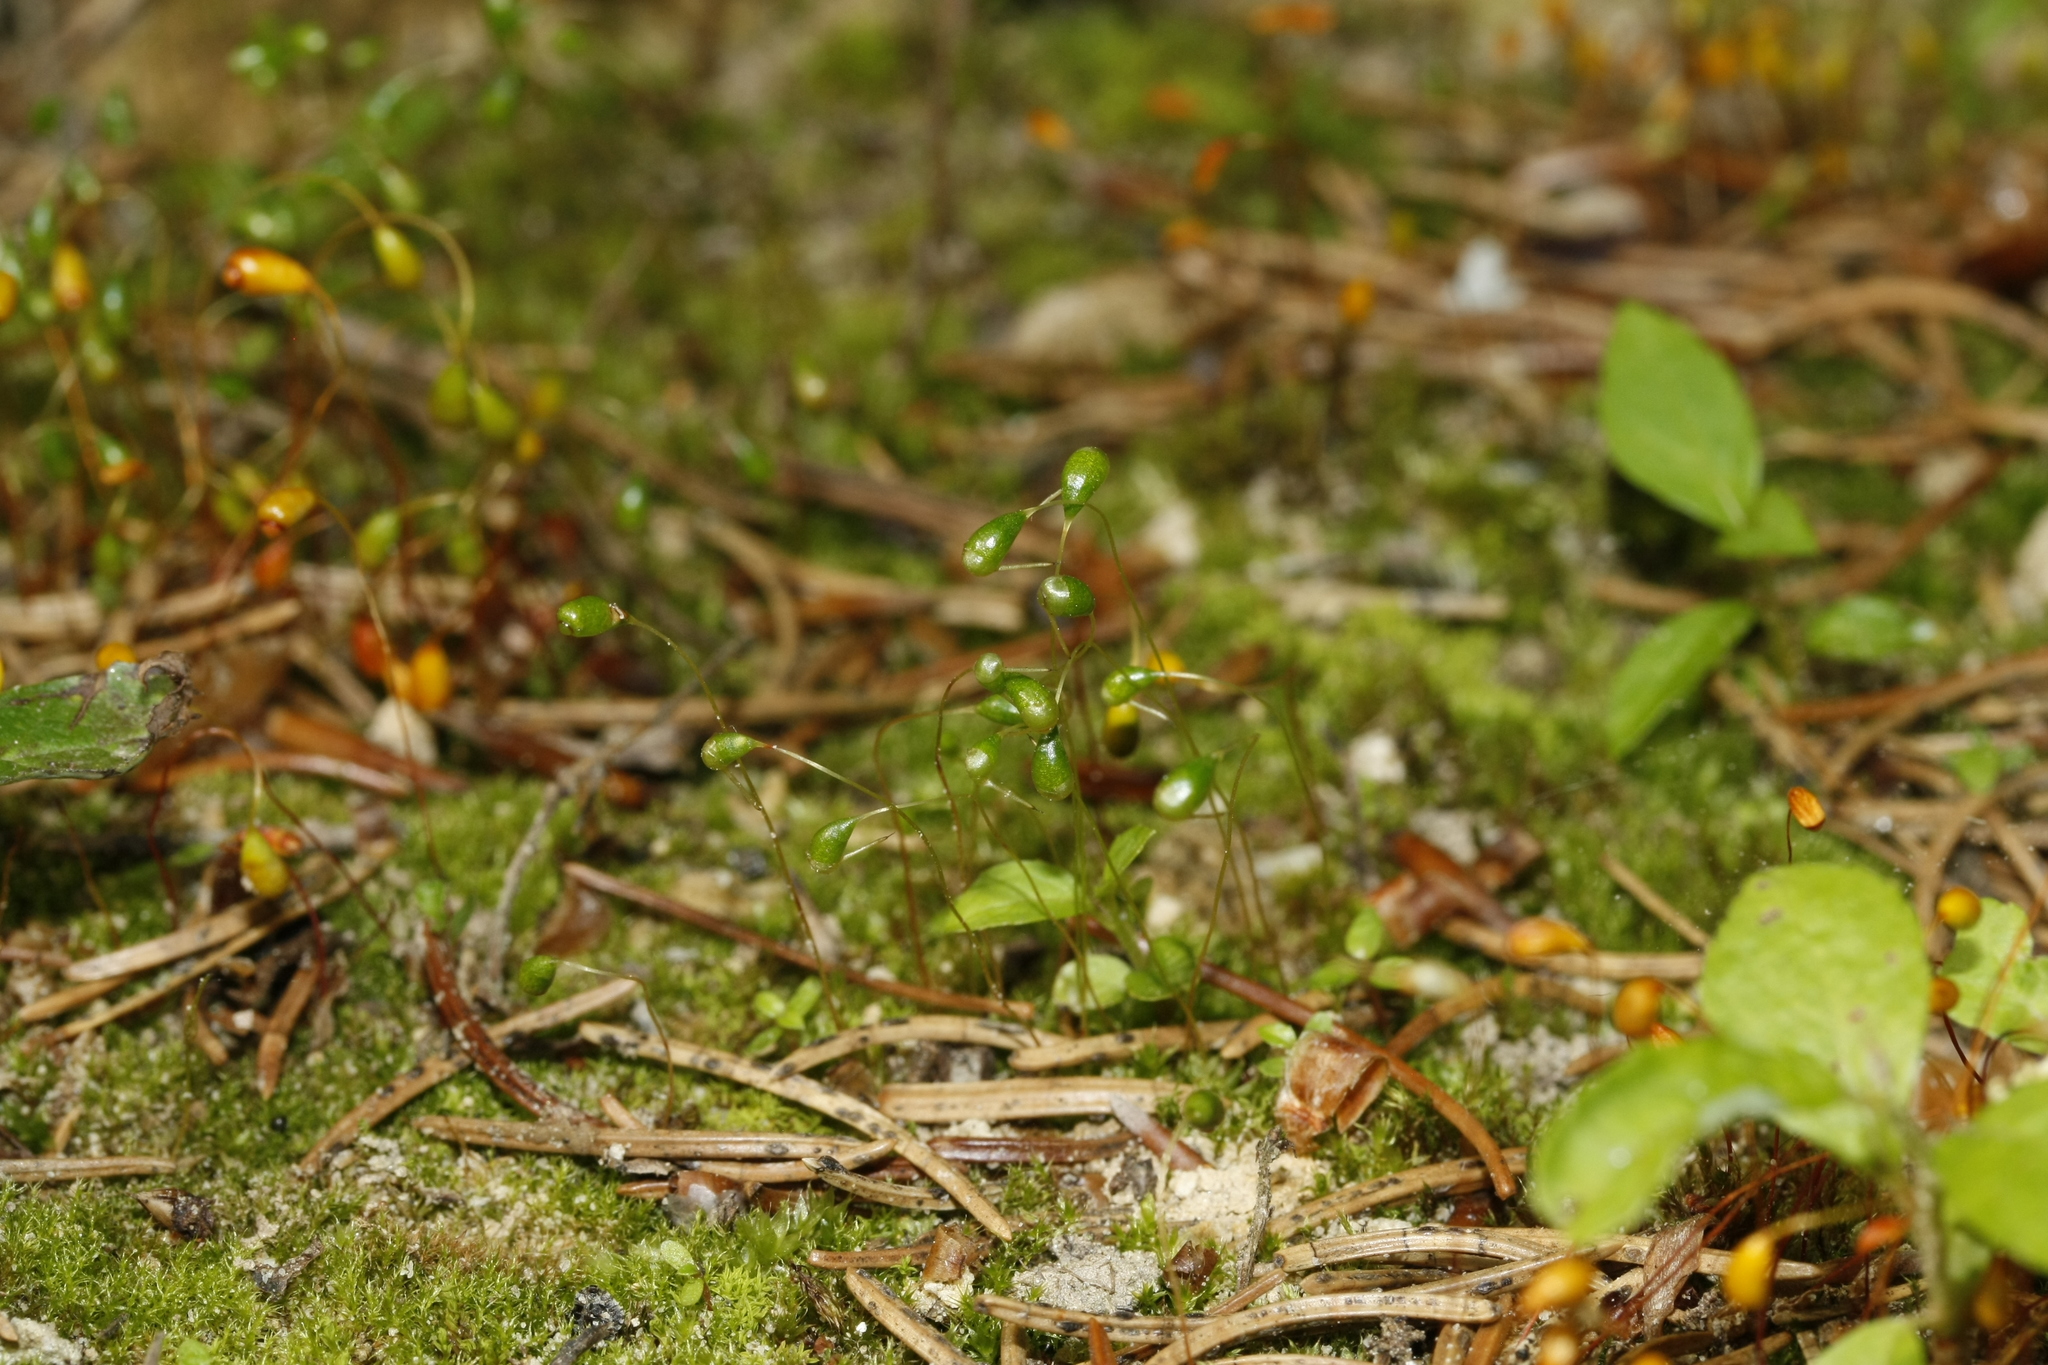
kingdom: Plantae
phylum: Bryophyta
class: Bryopsida
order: Funariales
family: Funariaceae
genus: Funaria
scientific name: Funaria hygrometrica
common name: Common cord moss
